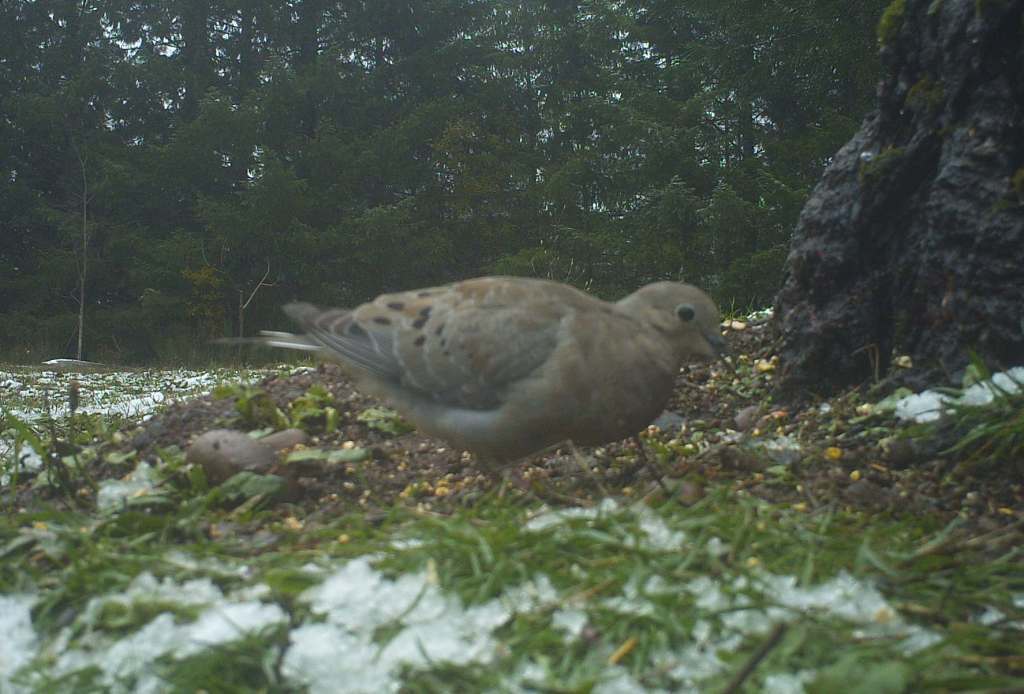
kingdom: Animalia
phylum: Chordata
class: Aves
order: Columbiformes
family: Columbidae
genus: Zenaida
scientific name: Zenaida macroura
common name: Mourning dove
